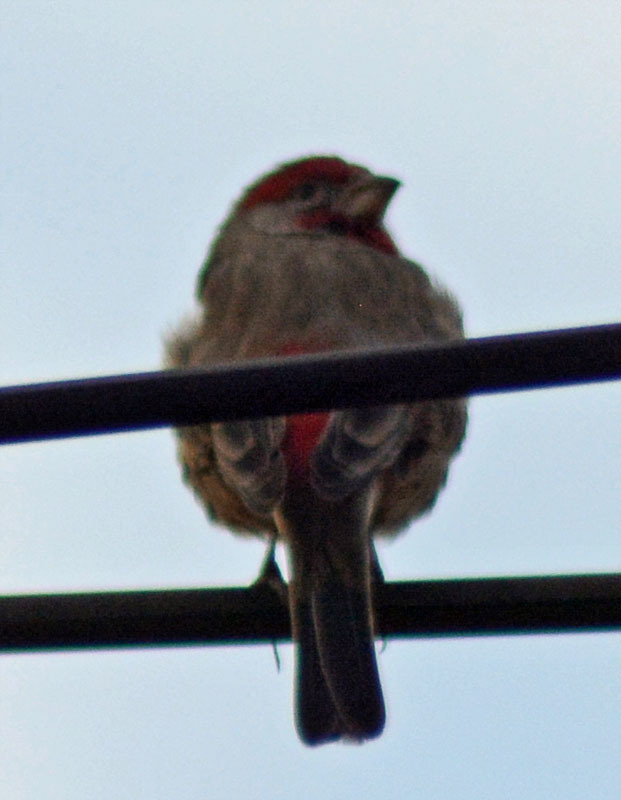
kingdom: Animalia
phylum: Chordata
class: Aves
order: Passeriformes
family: Fringillidae
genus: Haemorhous
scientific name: Haemorhous mexicanus
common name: House finch
